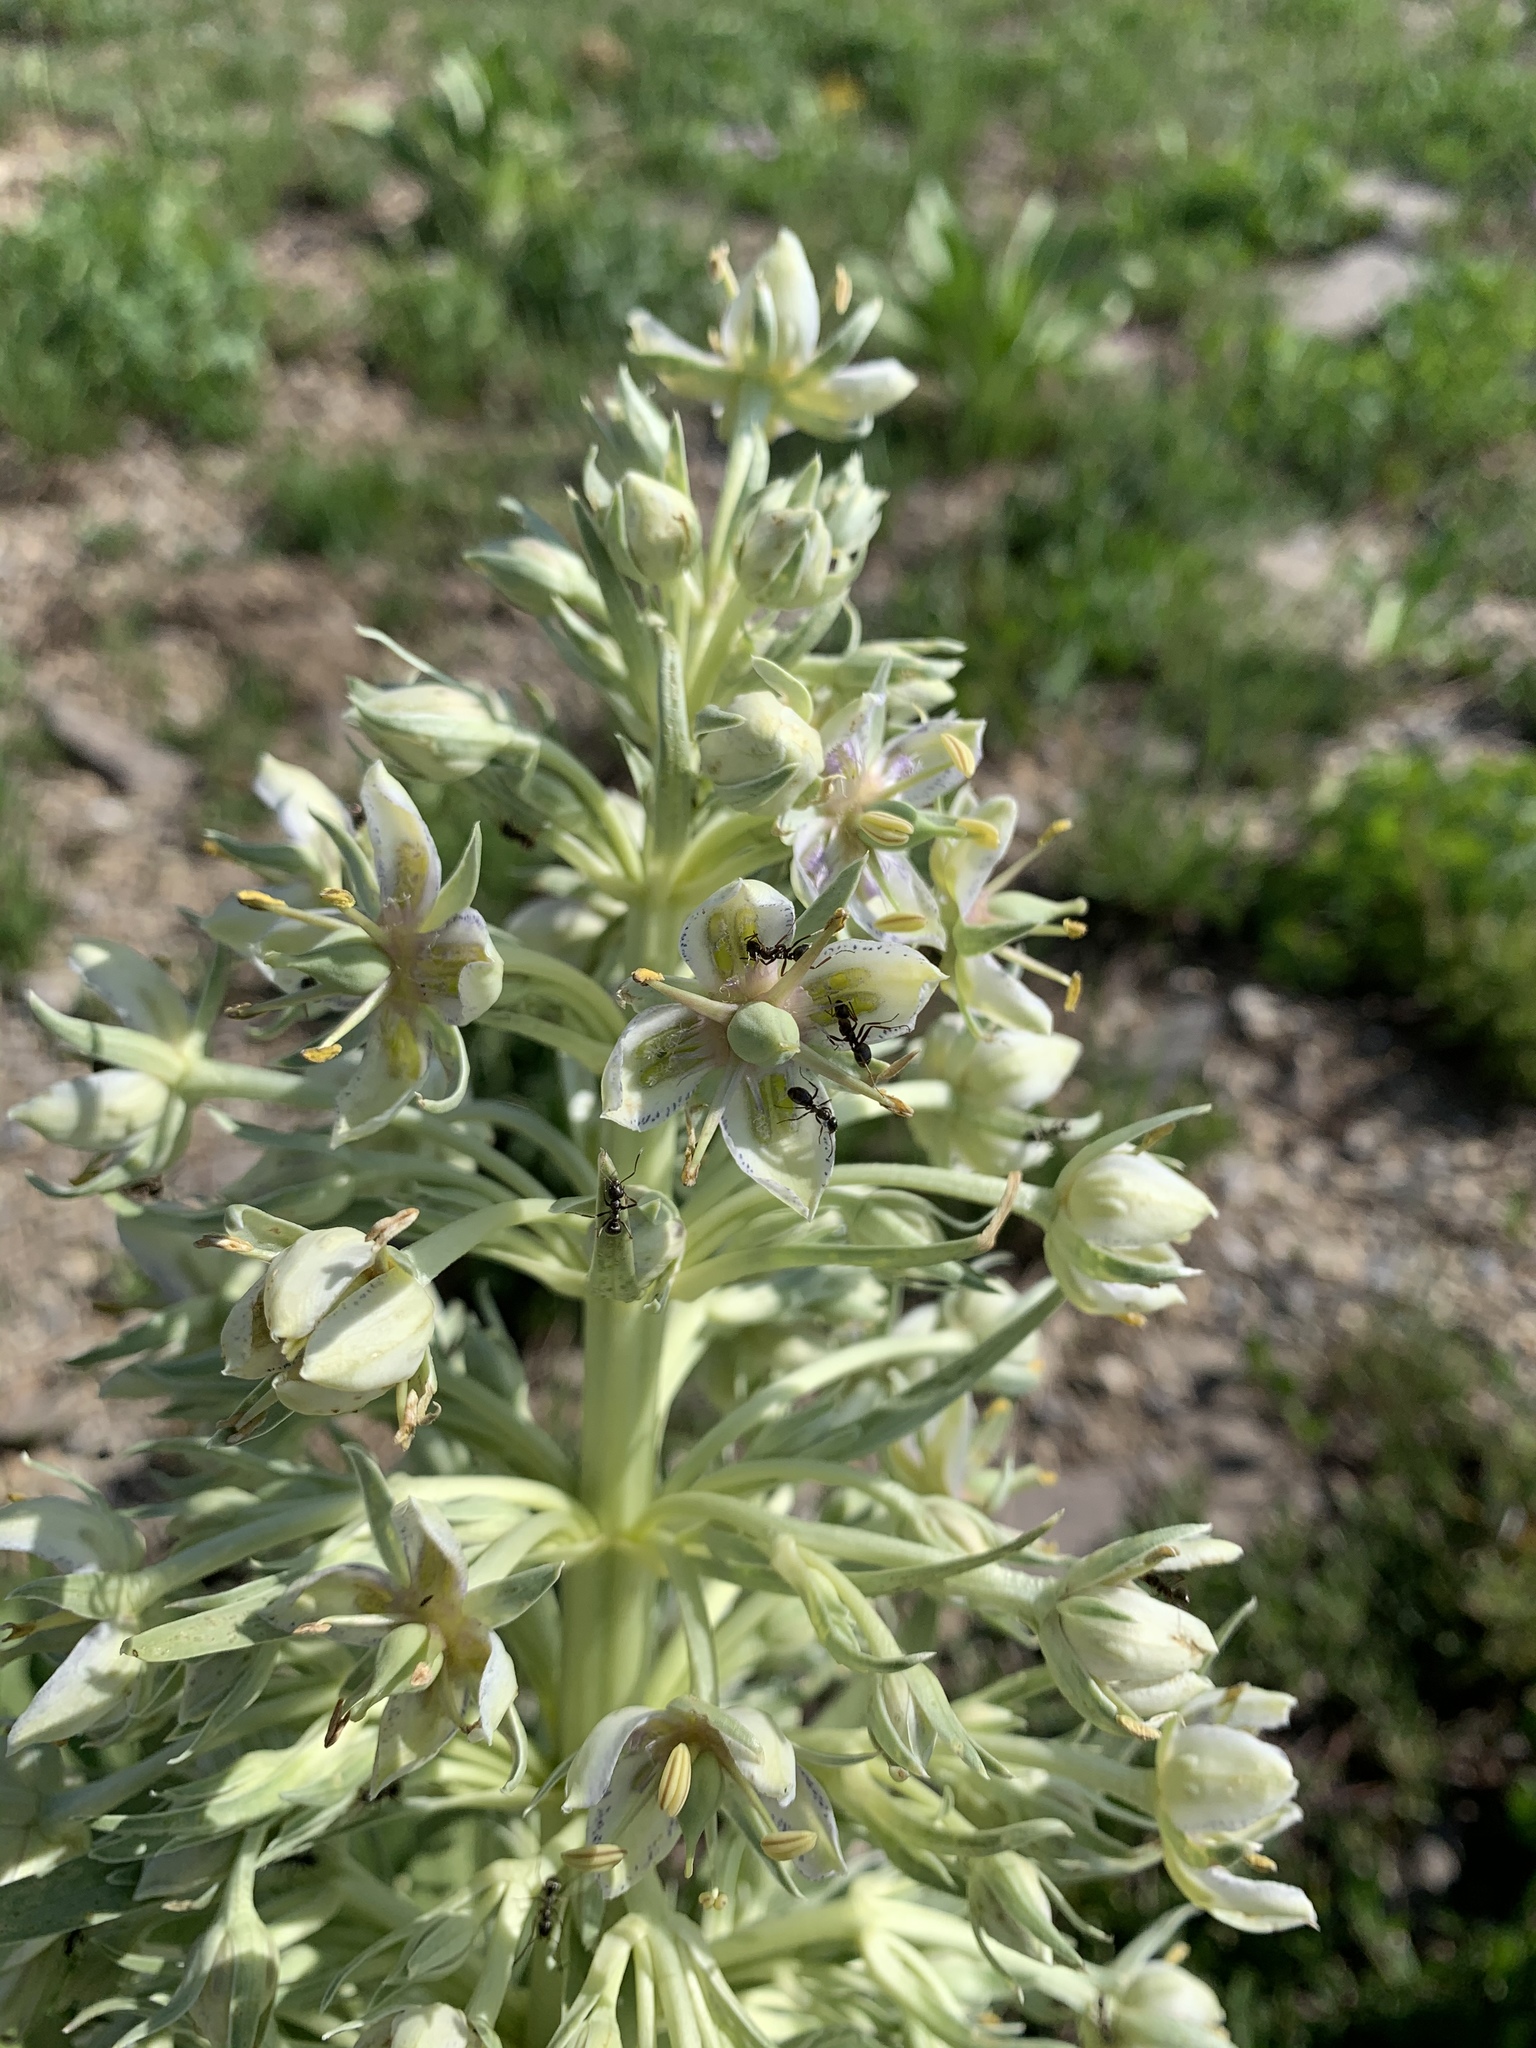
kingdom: Plantae
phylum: Tracheophyta
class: Magnoliopsida
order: Gentianales
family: Gentianaceae
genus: Frasera
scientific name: Frasera speciosa
